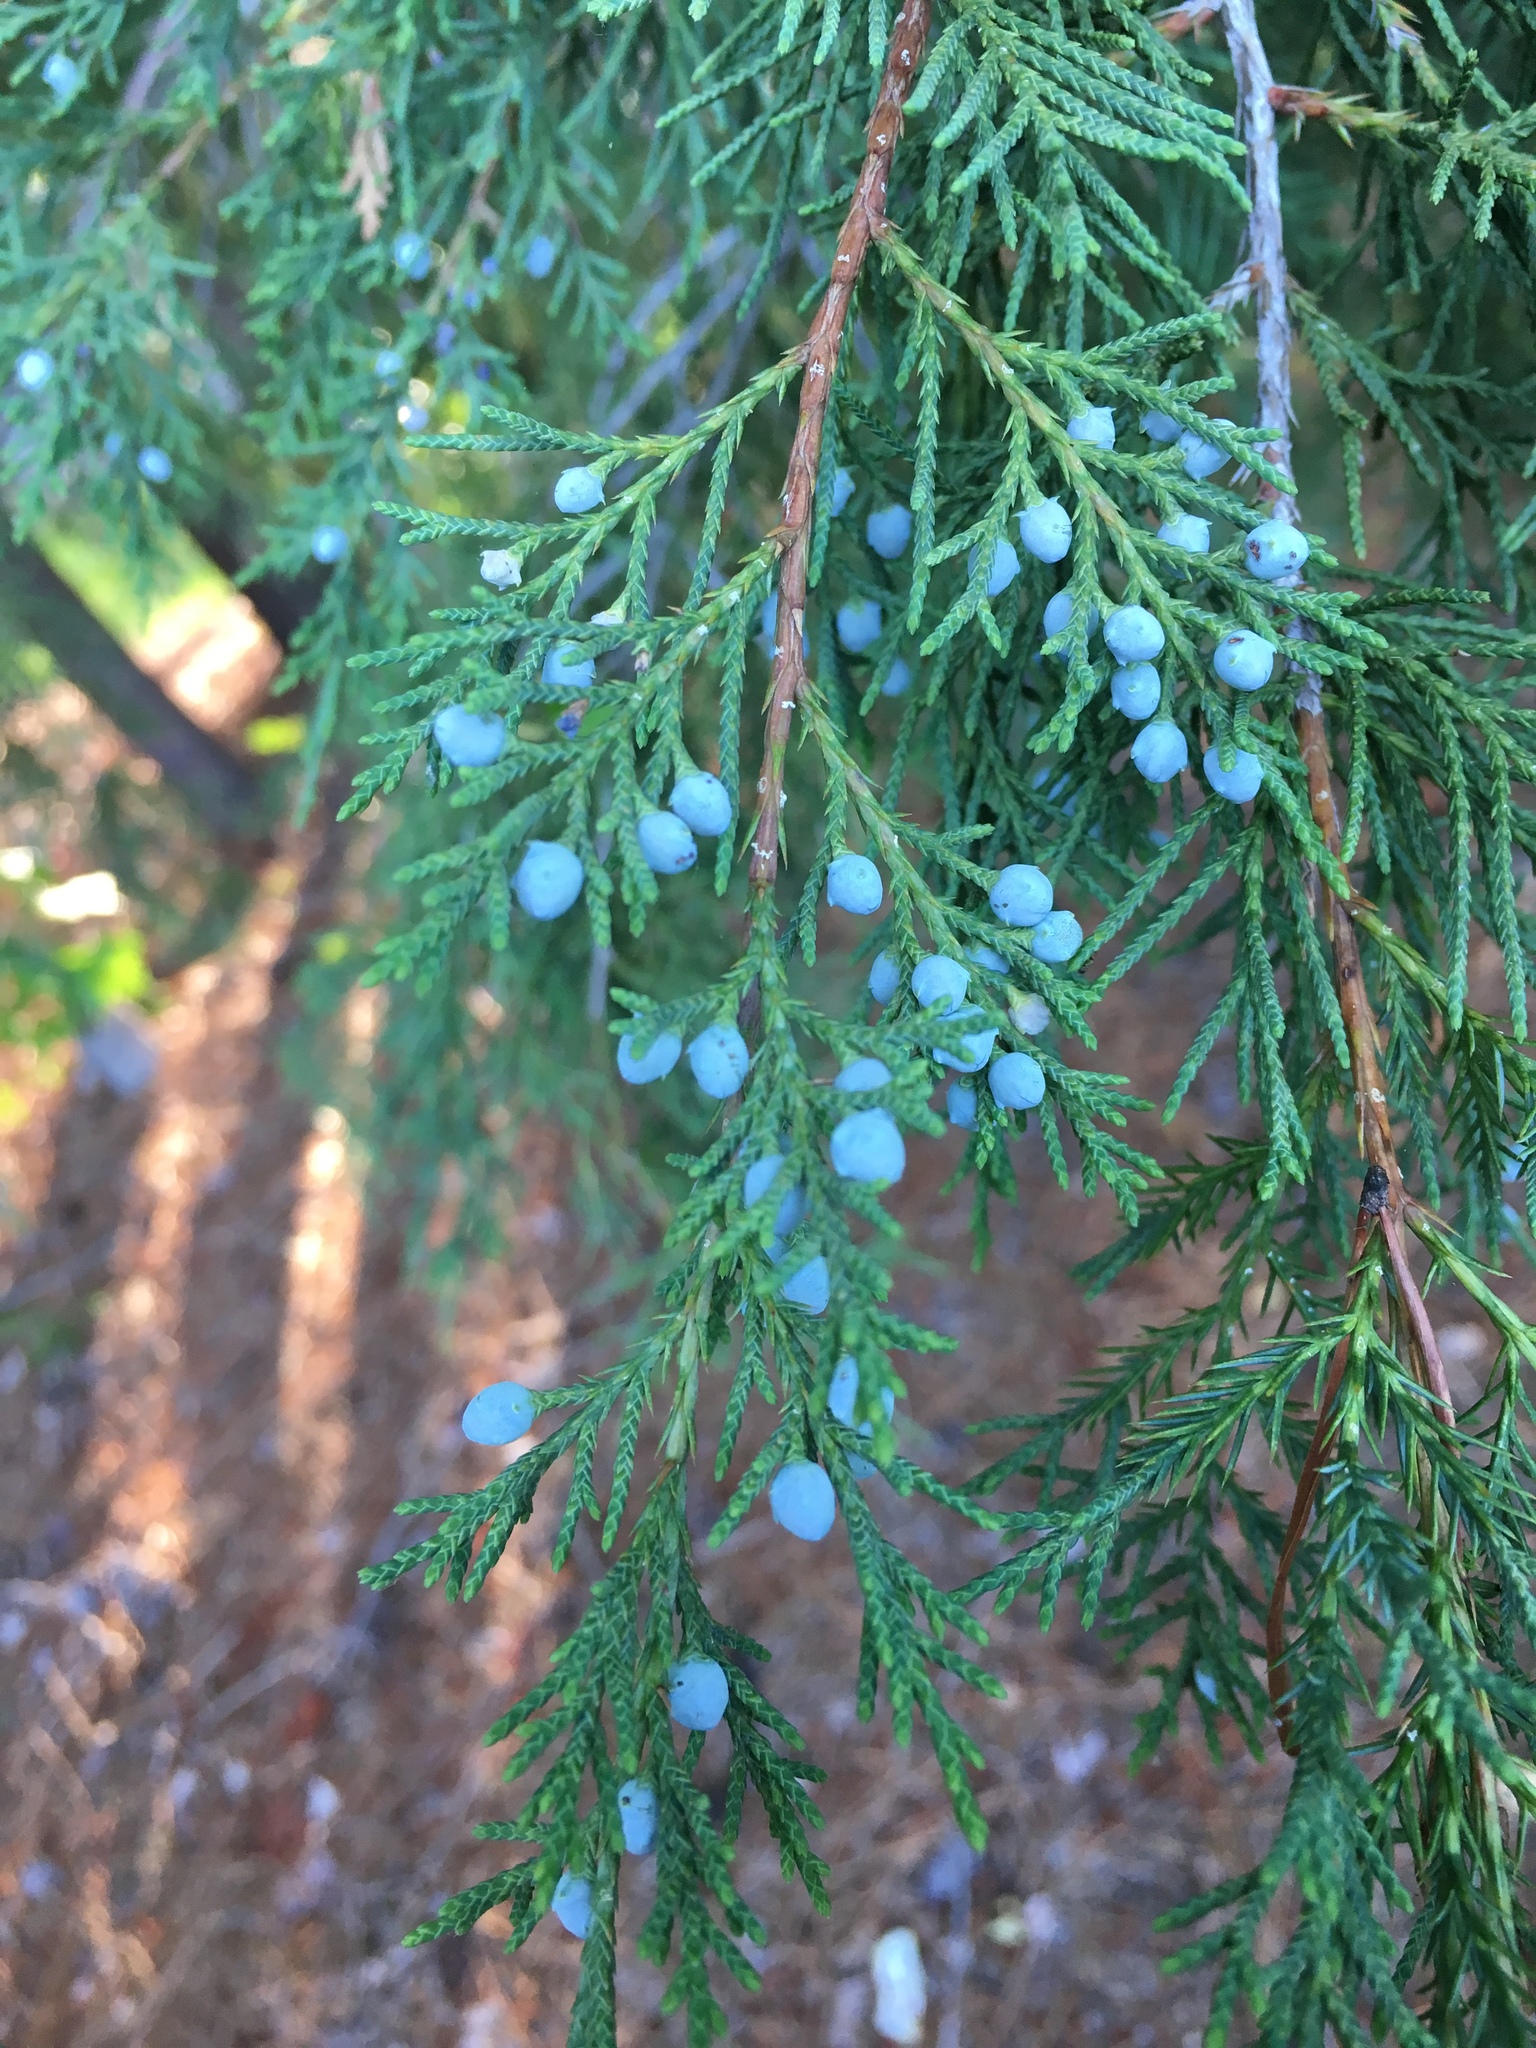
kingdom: Plantae
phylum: Tracheophyta
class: Pinopsida
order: Pinales
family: Cupressaceae
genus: Juniperus
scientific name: Juniperus virginiana
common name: Red juniper
